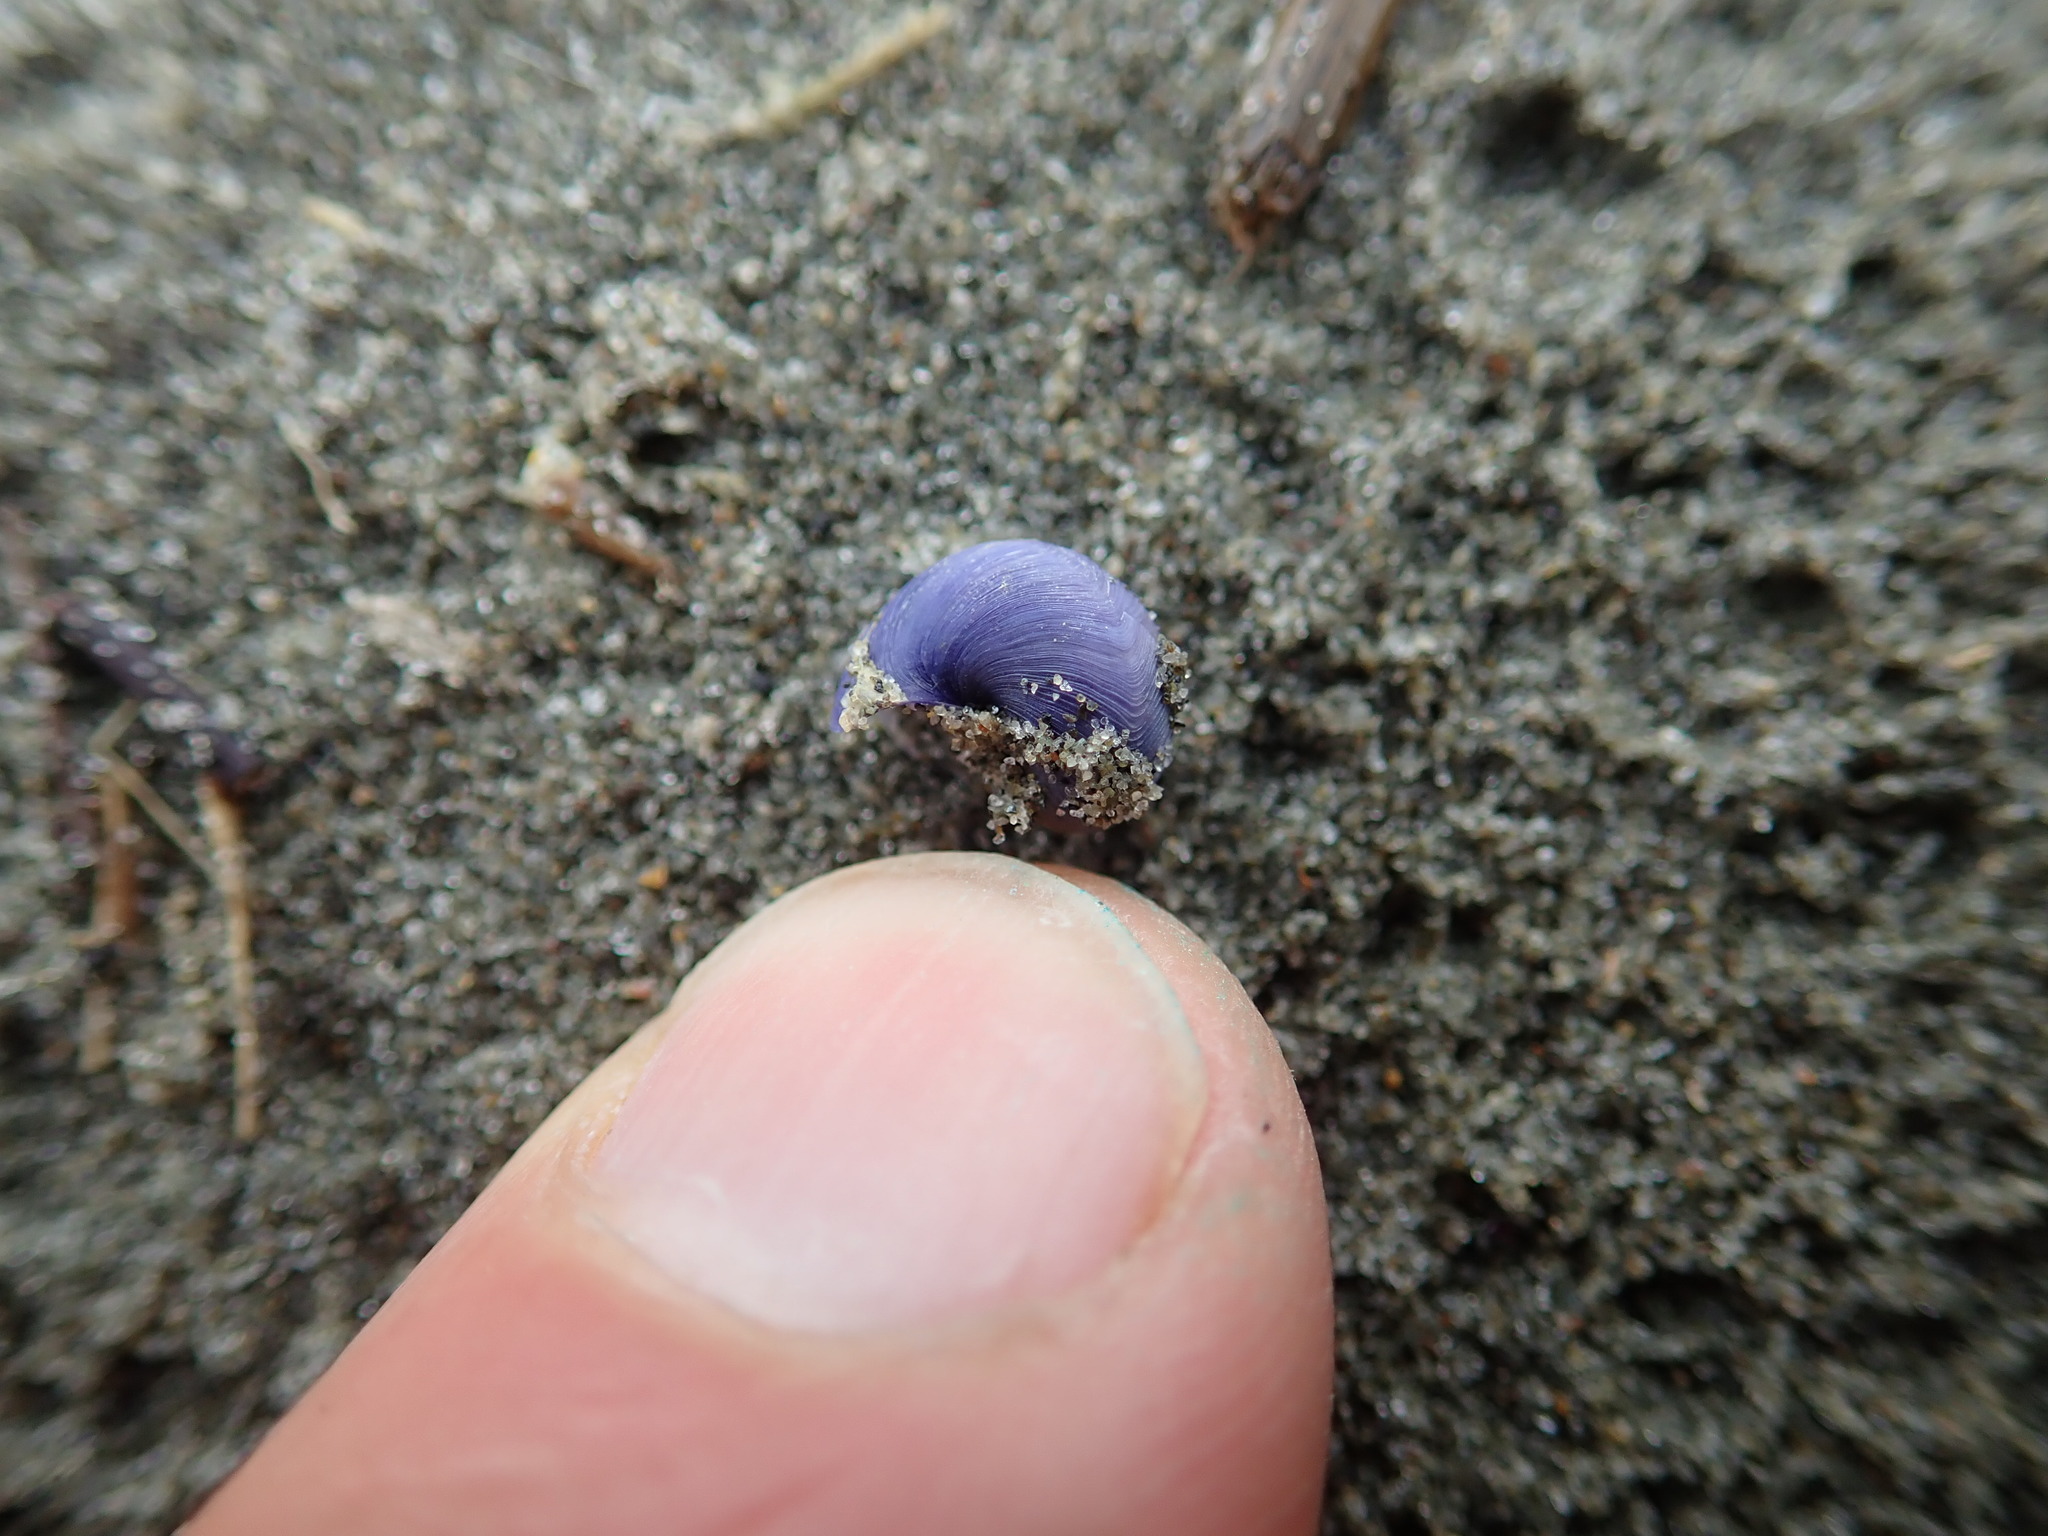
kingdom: Animalia
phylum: Mollusca
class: Gastropoda
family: Epitoniidae
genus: Janthina
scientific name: Janthina exigua
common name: Dwarf janthina
